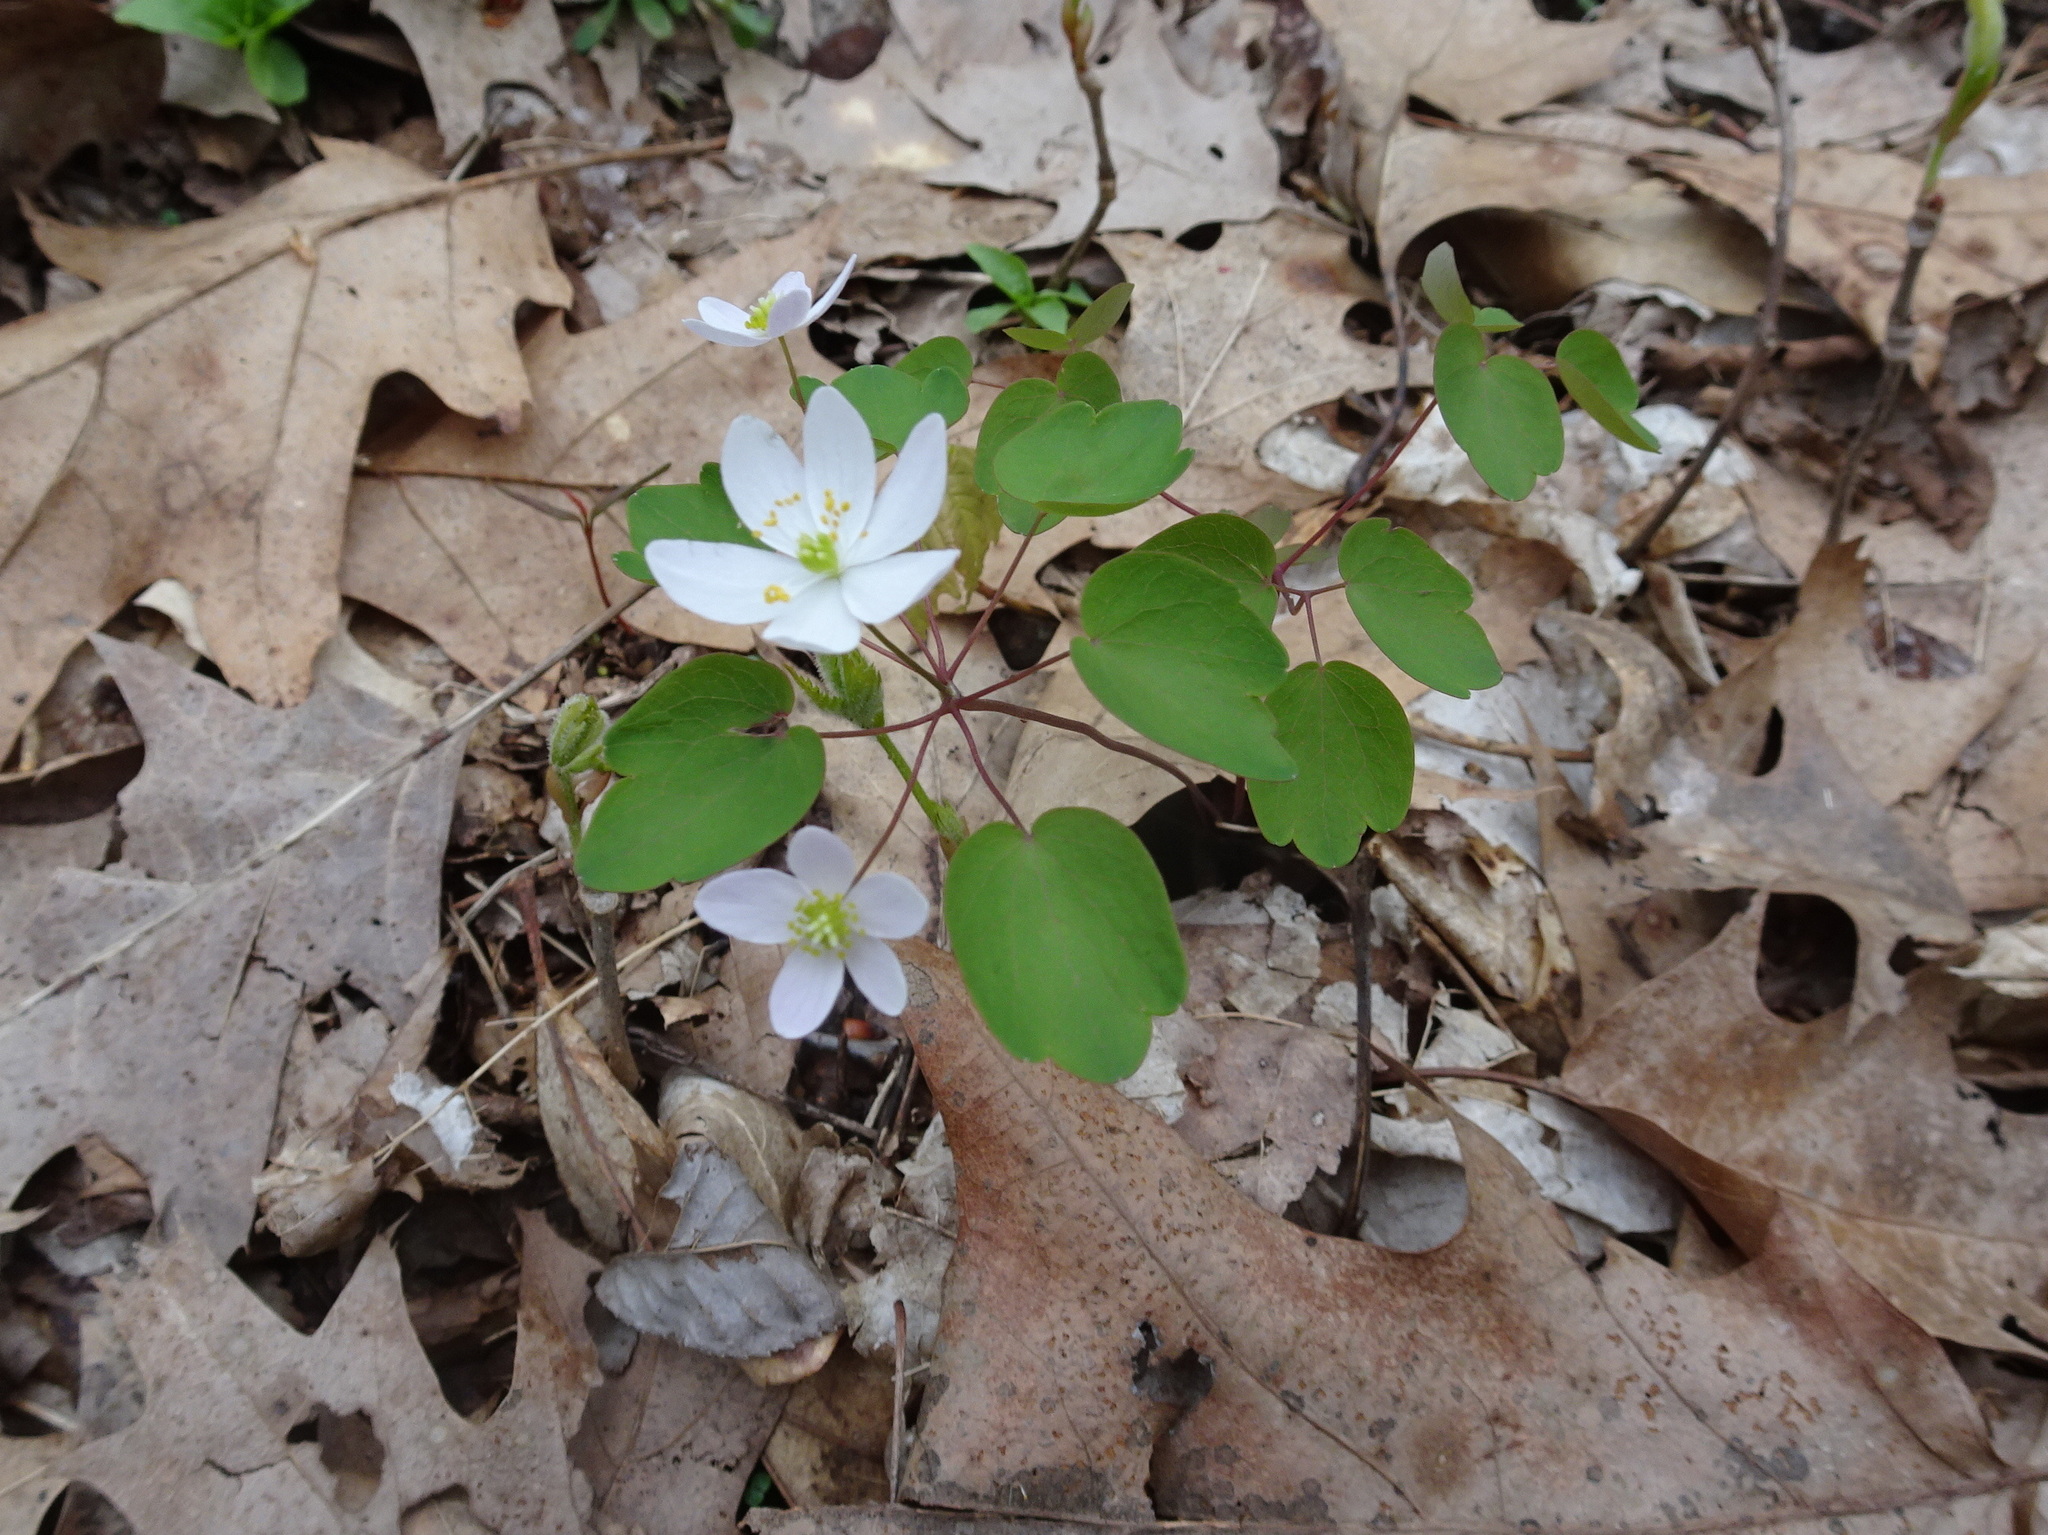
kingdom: Plantae
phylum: Tracheophyta
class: Magnoliopsida
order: Ranunculales
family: Ranunculaceae
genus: Thalictrum
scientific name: Thalictrum thalictroides
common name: Rue-anemone
